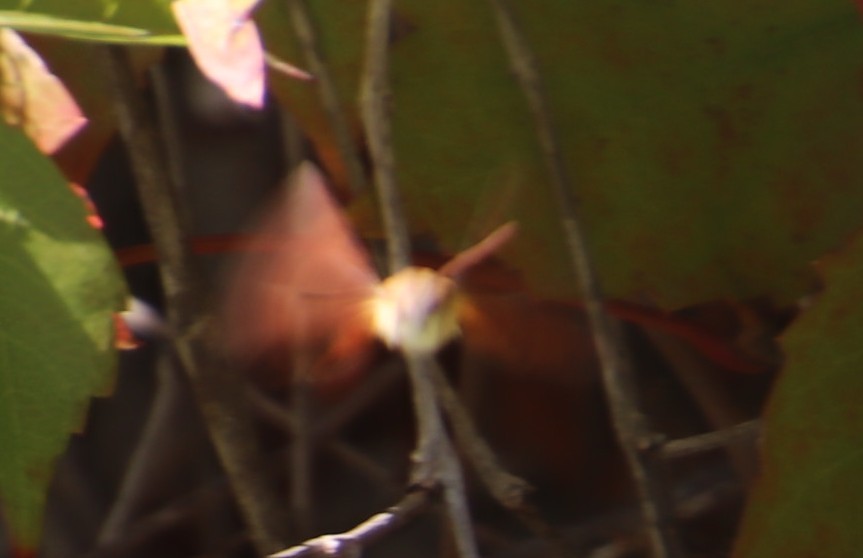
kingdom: Animalia
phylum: Arthropoda
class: Insecta
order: Lepidoptera
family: Sphingidae
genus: Macroglossum
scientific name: Macroglossum trochilus
